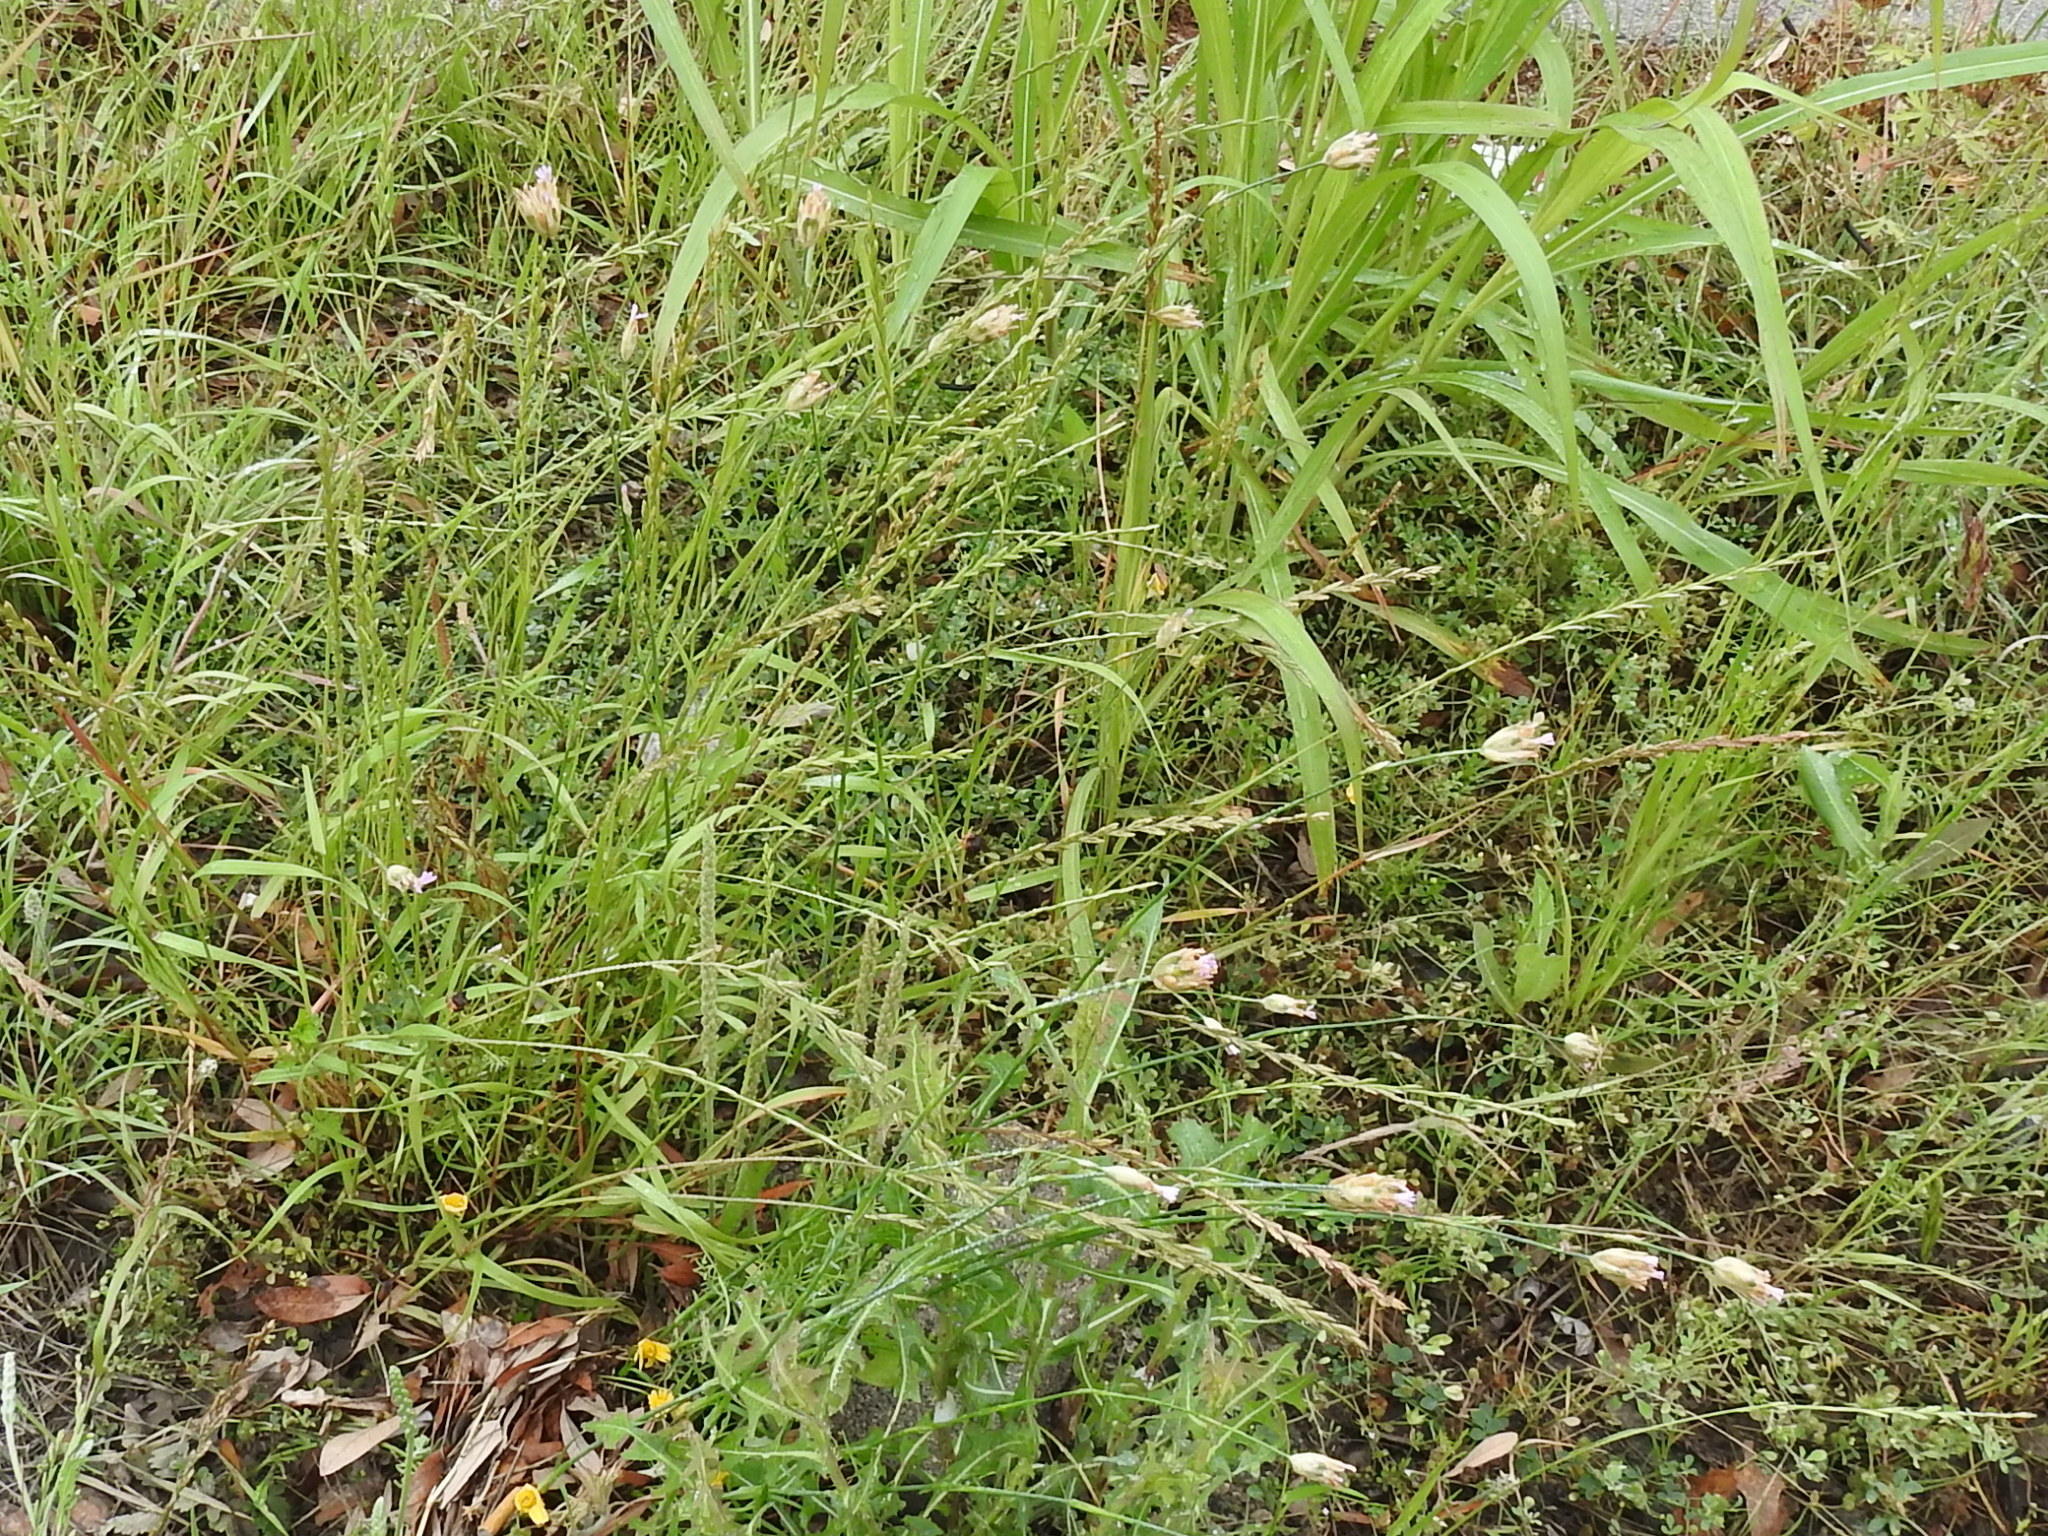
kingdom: Plantae
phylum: Tracheophyta
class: Magnoliopsida
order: Caryophyllales
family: Caryophyllaceae
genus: Petrorhagia
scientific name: Petrorhagia dubia
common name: Hairypink
